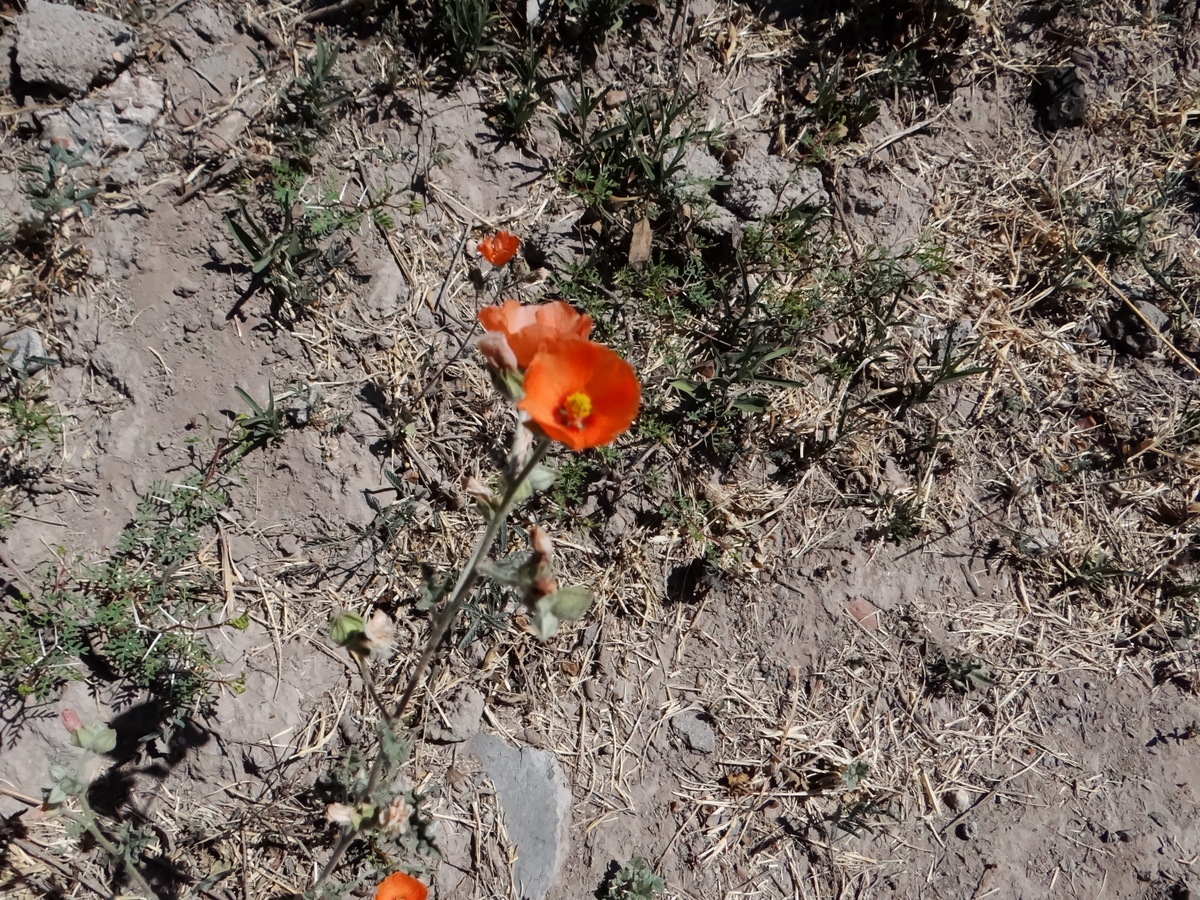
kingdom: Plantae
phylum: Tracheophyta
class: Magnoliopsida
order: Malvales
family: Malvaceae
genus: Sphaeralcea
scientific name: Sphaeralcea miniata
